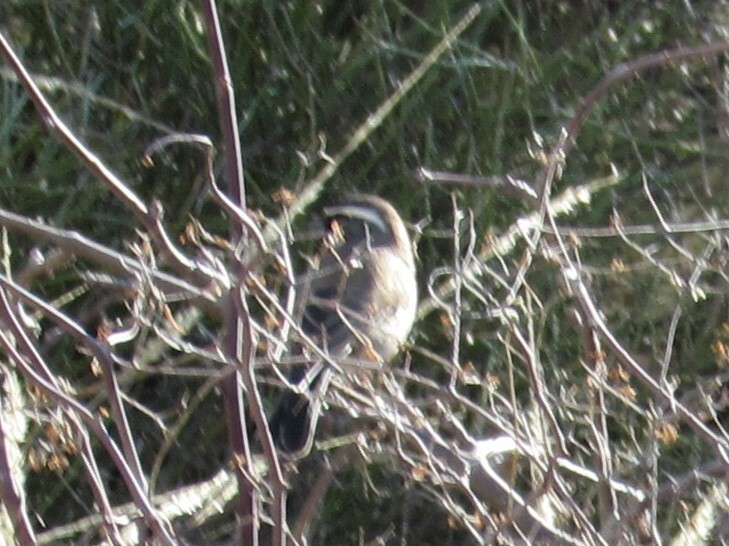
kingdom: Animalia
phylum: Chordata
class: Aves
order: Passeriformes
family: Passerellidae
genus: Amphispiza
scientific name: Amphispiza bilineata
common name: Black-throated sparrow
